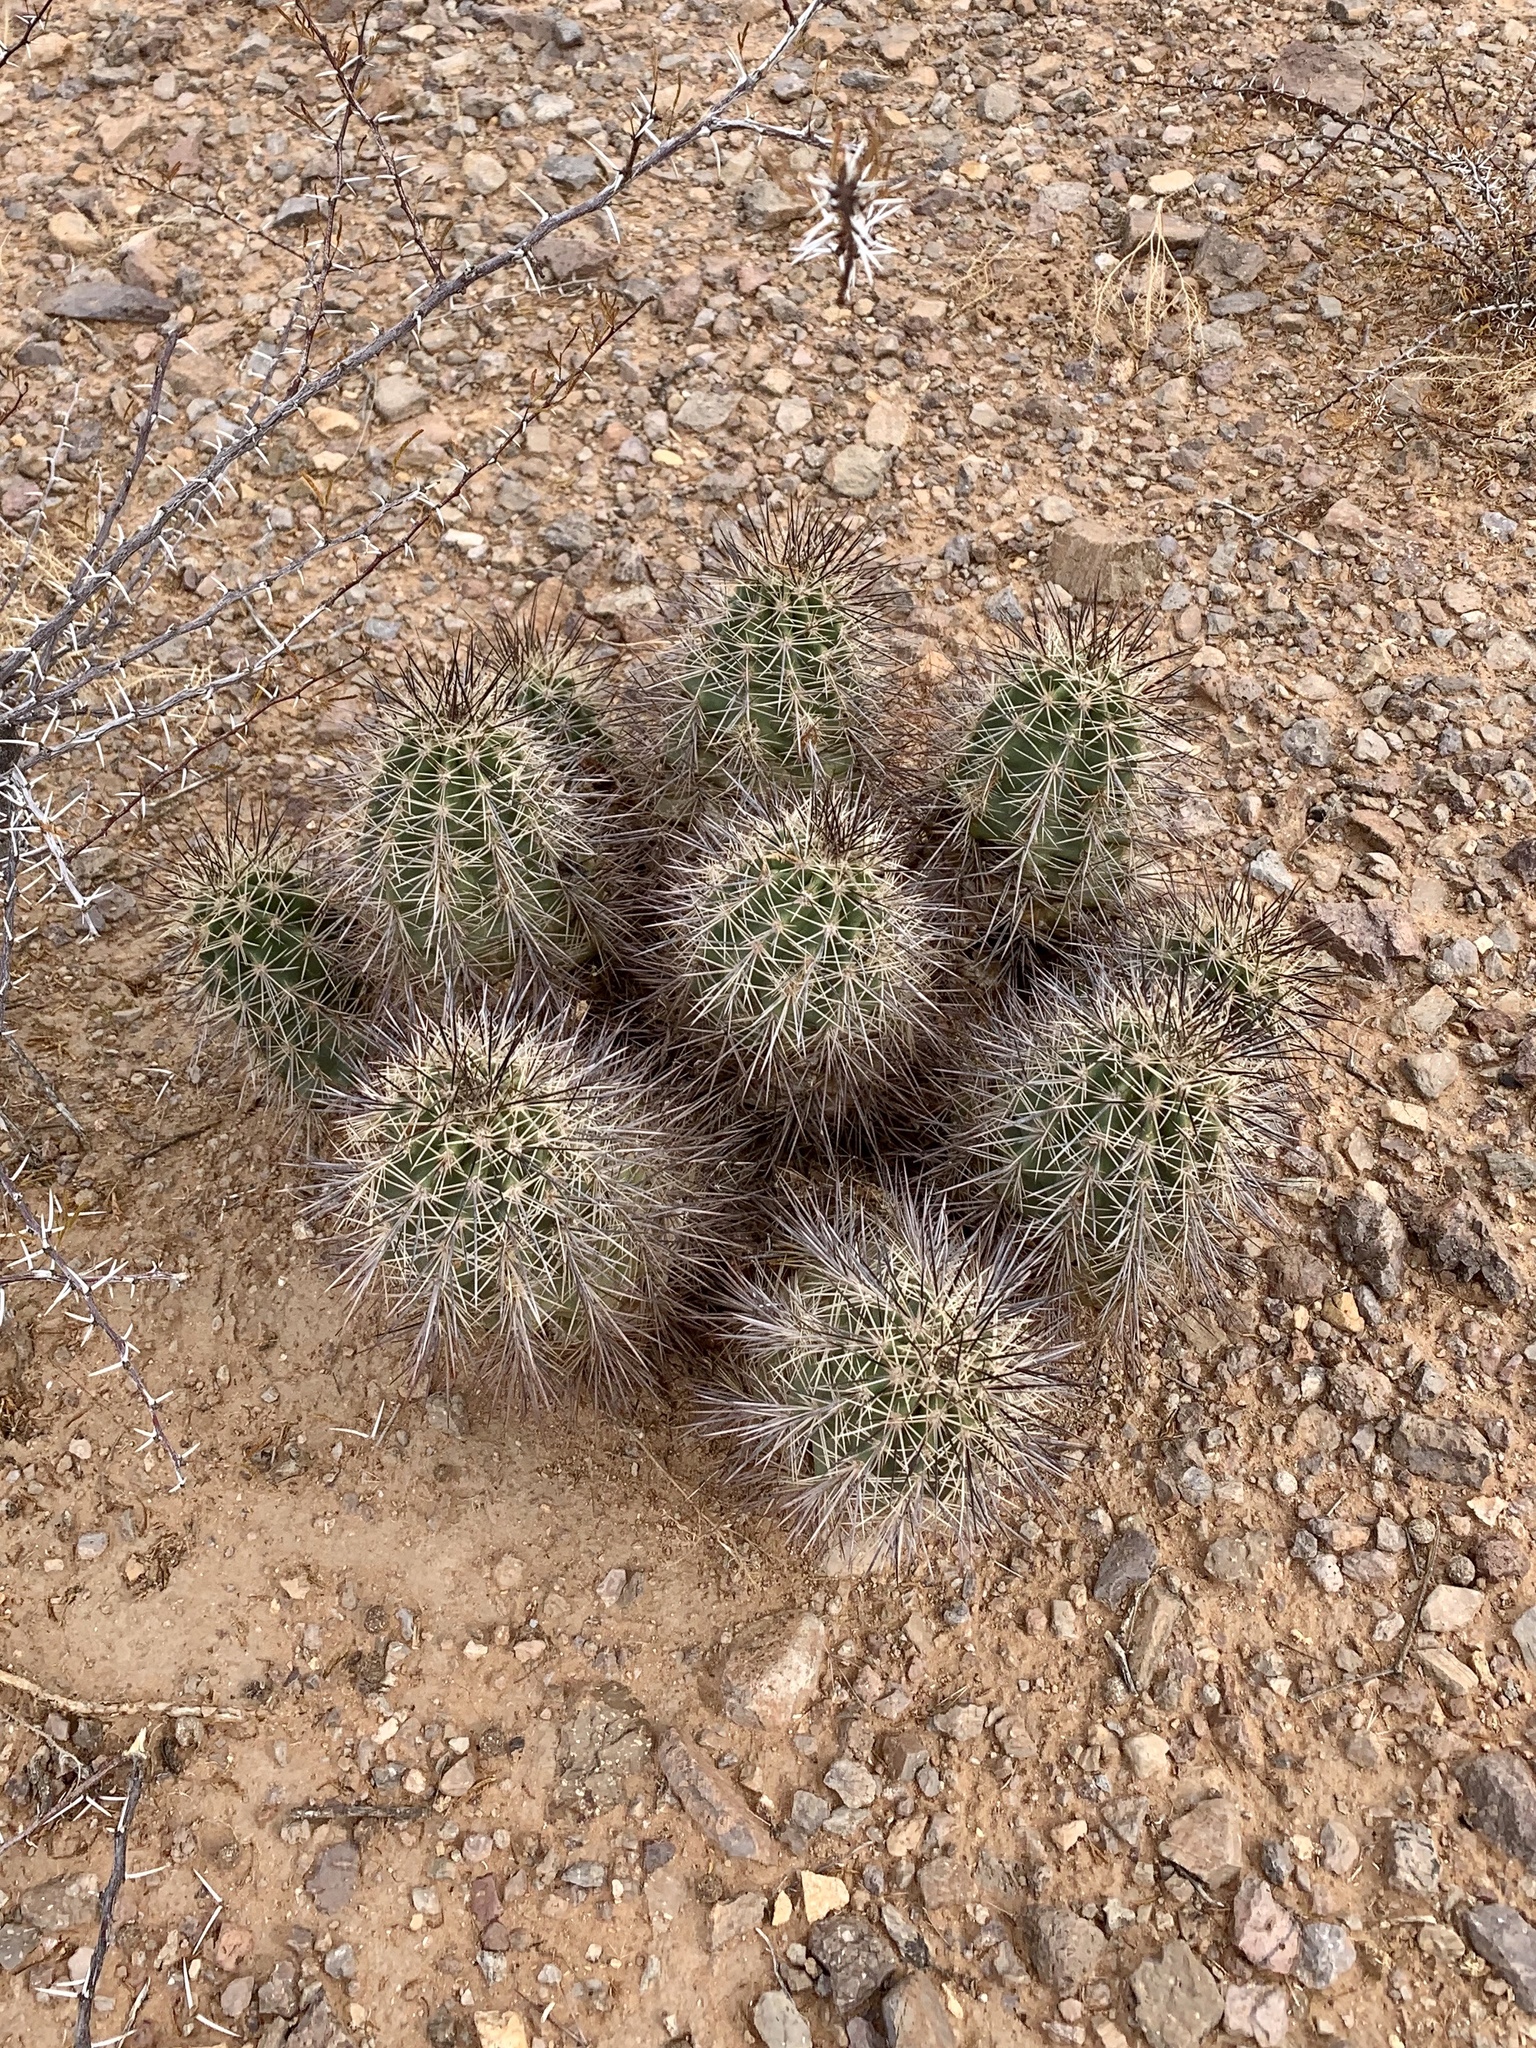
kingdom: Plantae
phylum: Tracheophyta
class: Magnoliopsida
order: Caryophyllales
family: Cactaceae
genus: Echinocereus
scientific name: Echinocereus coccineus
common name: Scarlet hedgehog cactus
